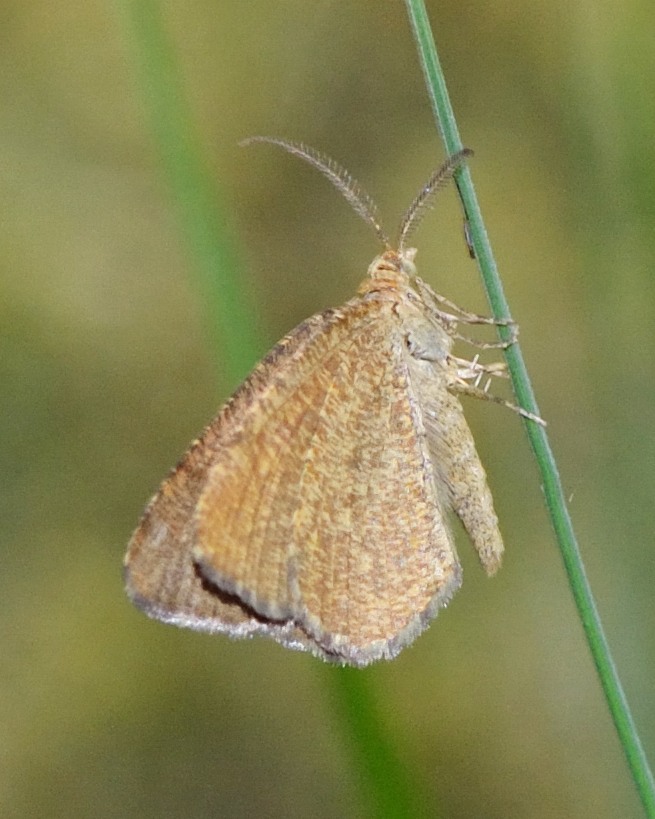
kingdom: Animalia
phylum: Arthropoda
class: Insecta
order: Lepidoptera
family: Geometridae
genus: Macaria
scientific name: Macaria brunneata
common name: Rannoch looper
